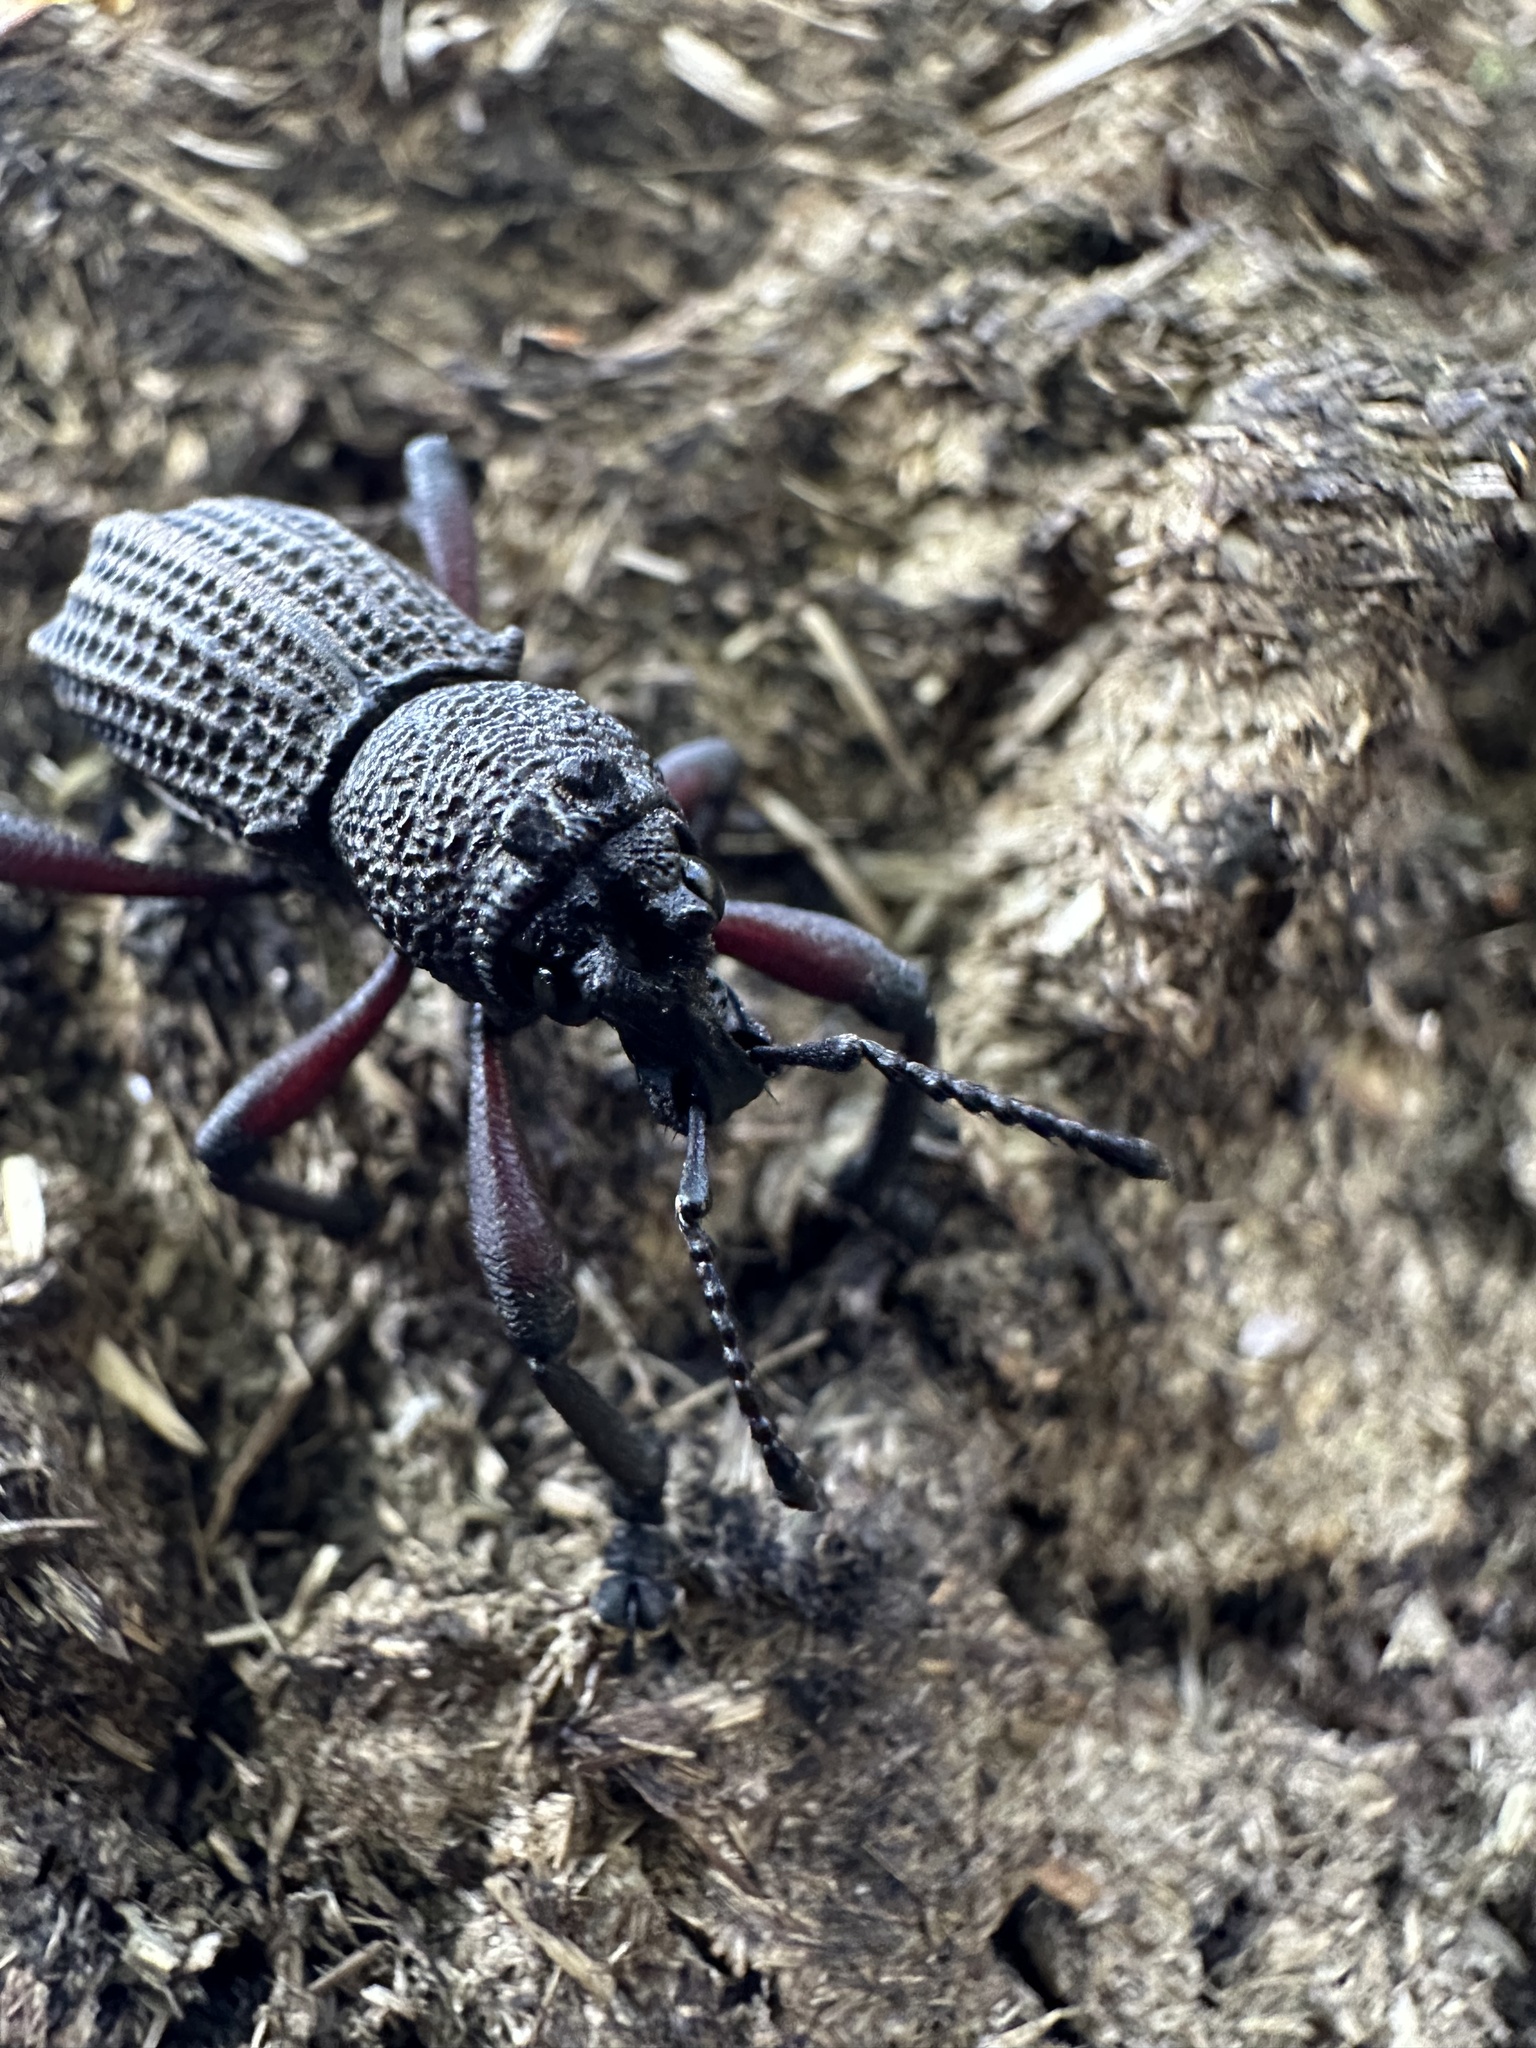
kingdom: Animalia
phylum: Arthropoda
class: Insecta
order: Coleoptera
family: Curculionidae
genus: Aegorhinus
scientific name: Aegorhinus
